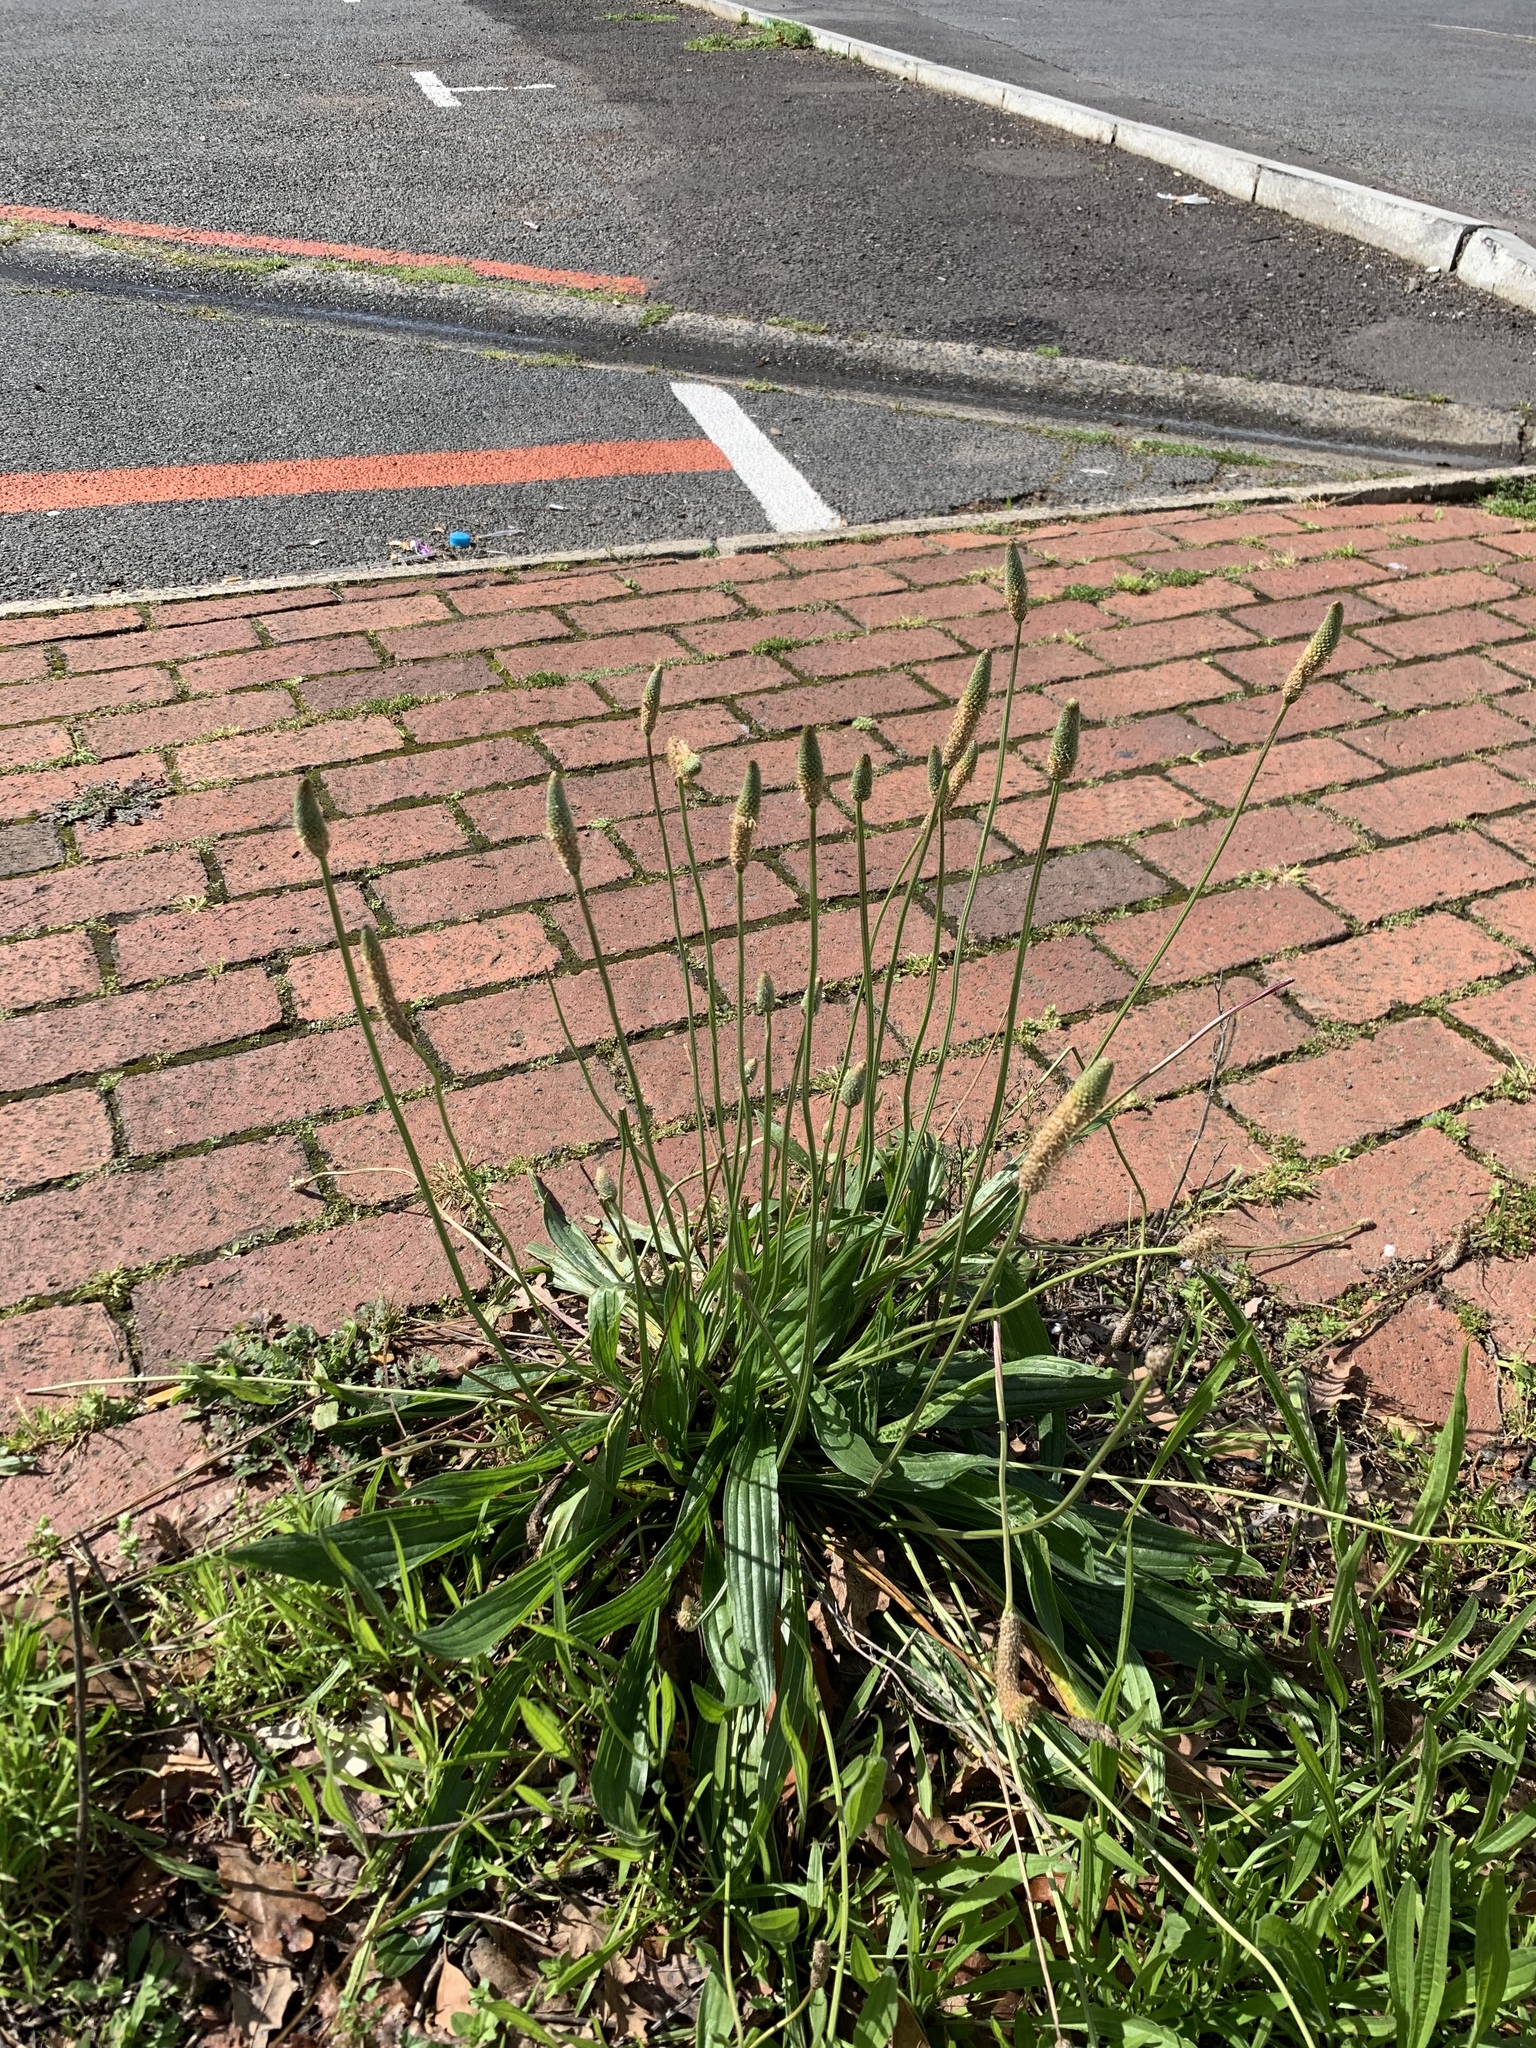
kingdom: Plantae
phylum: Tracheophyta
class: Magnoliopsida
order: Lamiales
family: Plantaginaceae
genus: Plantago
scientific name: Plantago lanceolata
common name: Ribwort plantain
